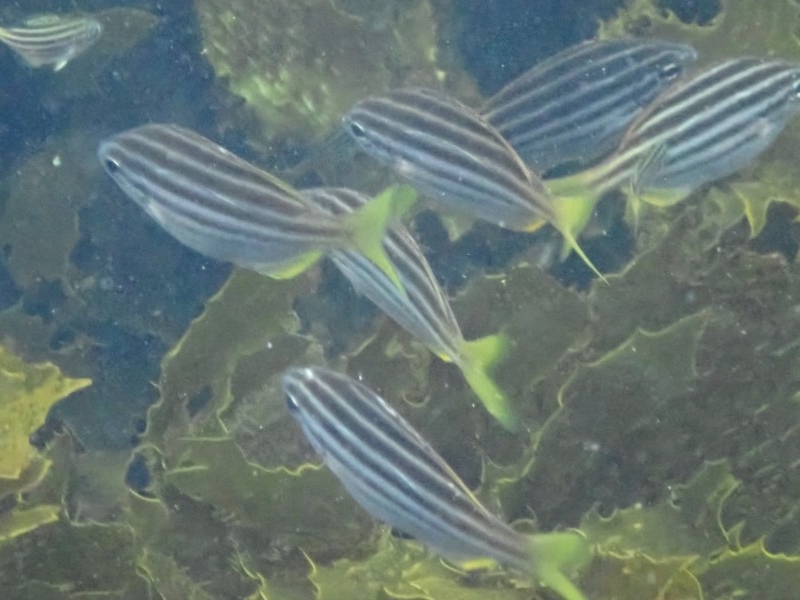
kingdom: Animalia
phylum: Chordata
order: Perciformes
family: Kyphosidae
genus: Atypichthys
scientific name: Atypichthys strigatus
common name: Australian mado
